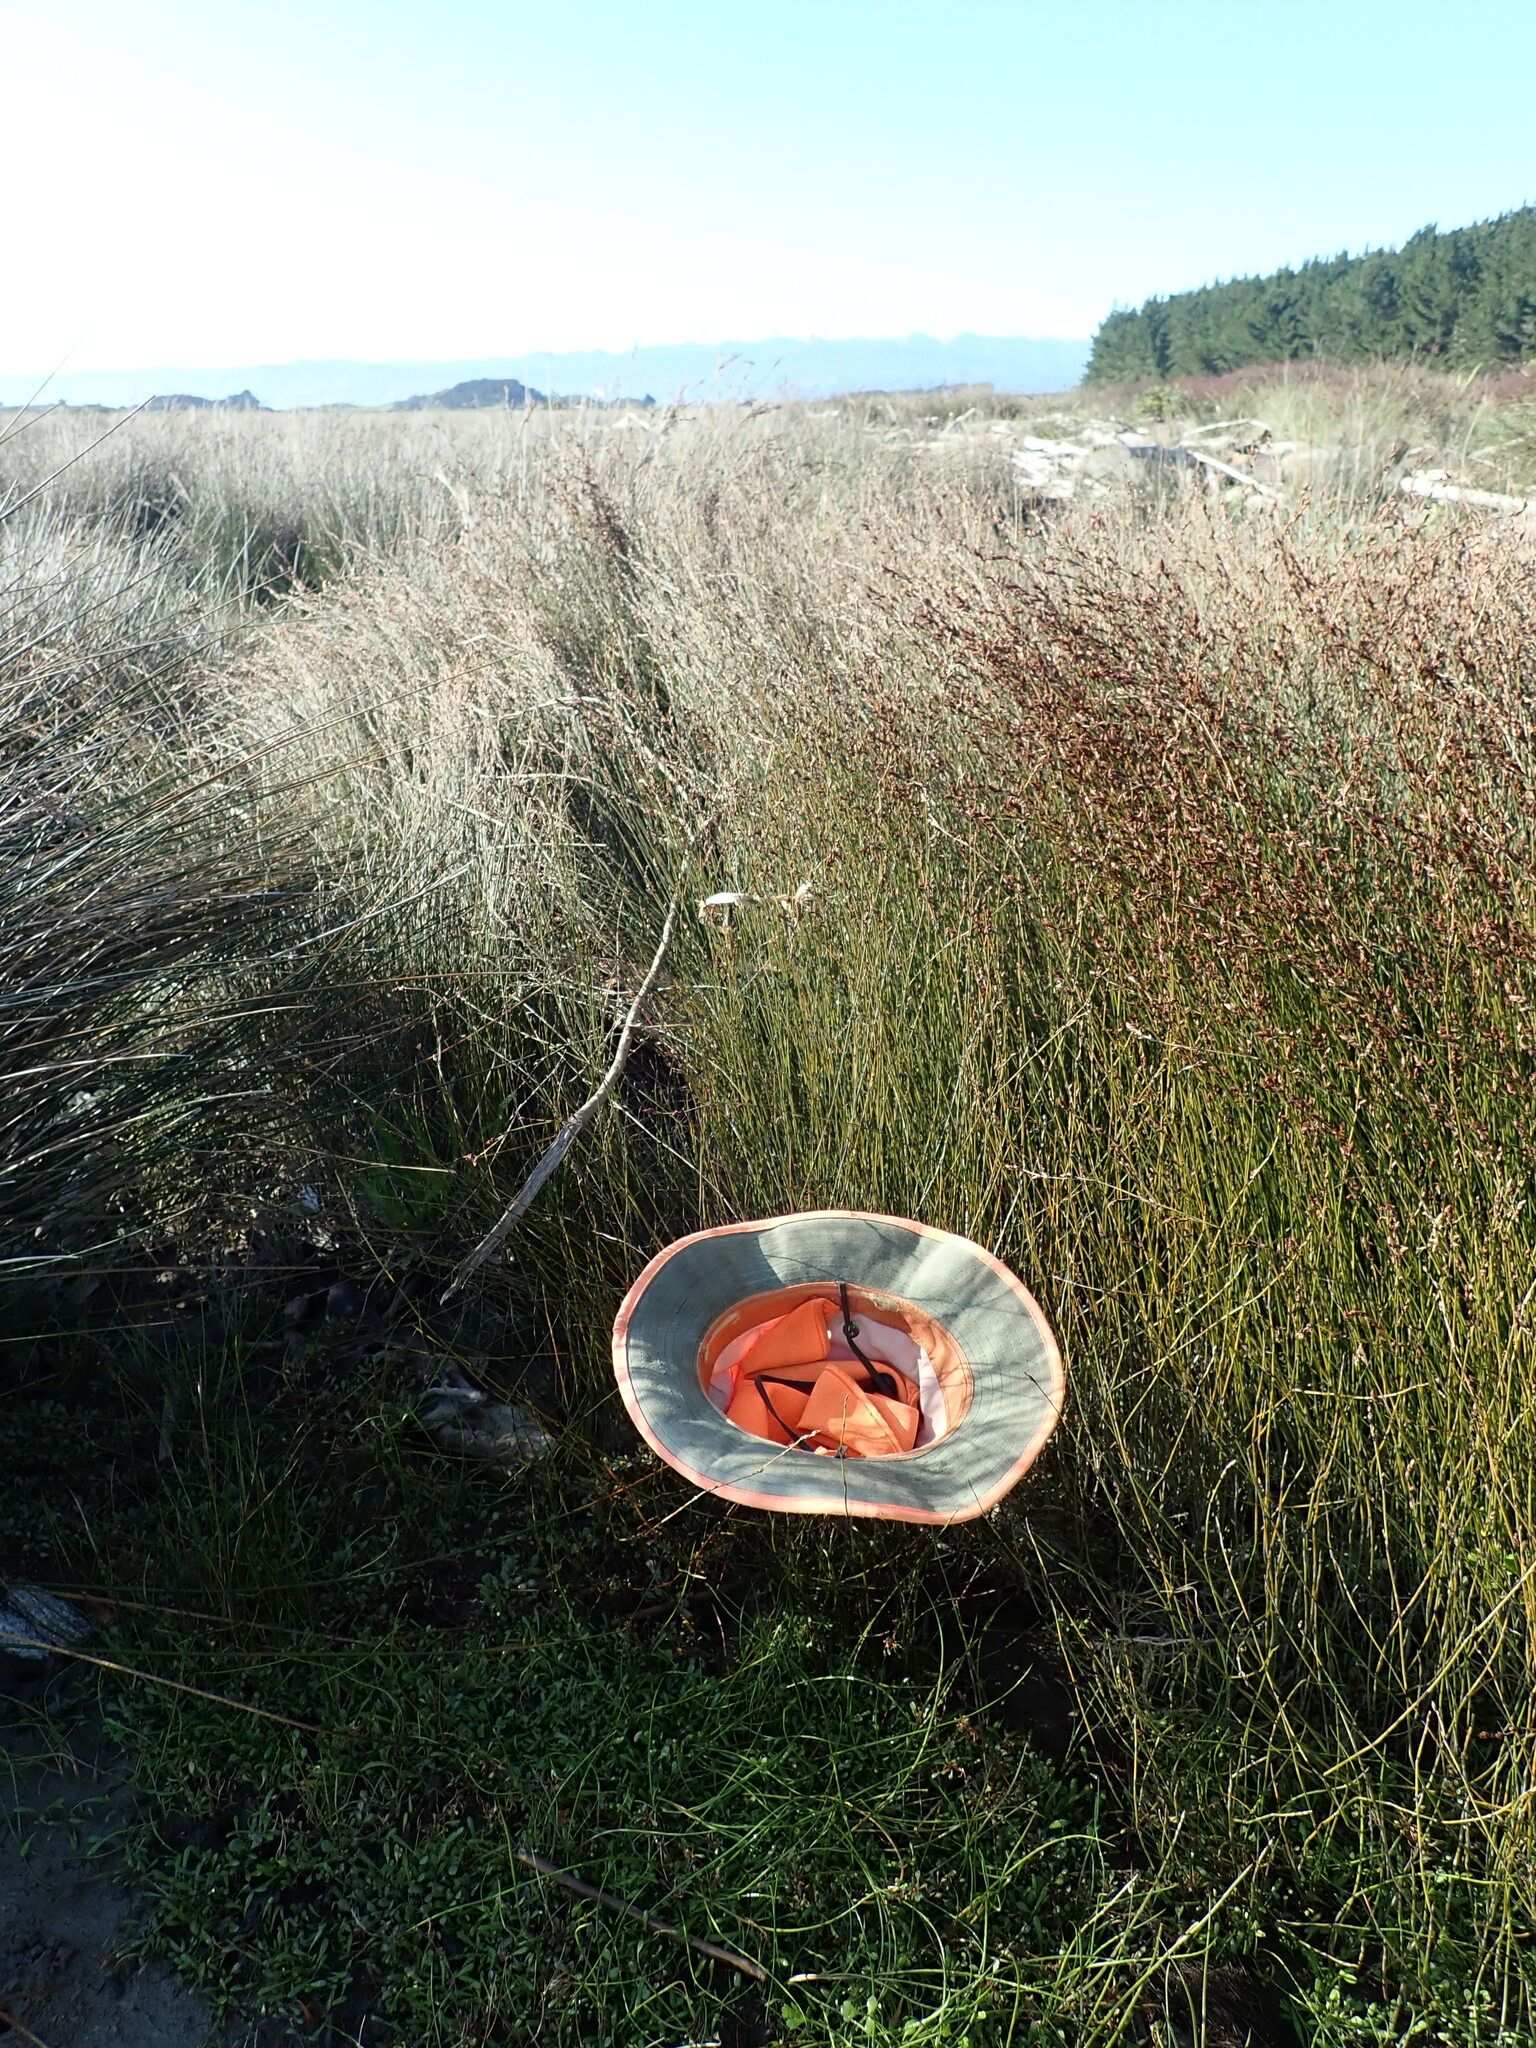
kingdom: Plantae
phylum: Tracheophyta
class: Magnoliopsida
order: Ericales
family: Primulaceae
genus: Samolus
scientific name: Samolus repens
